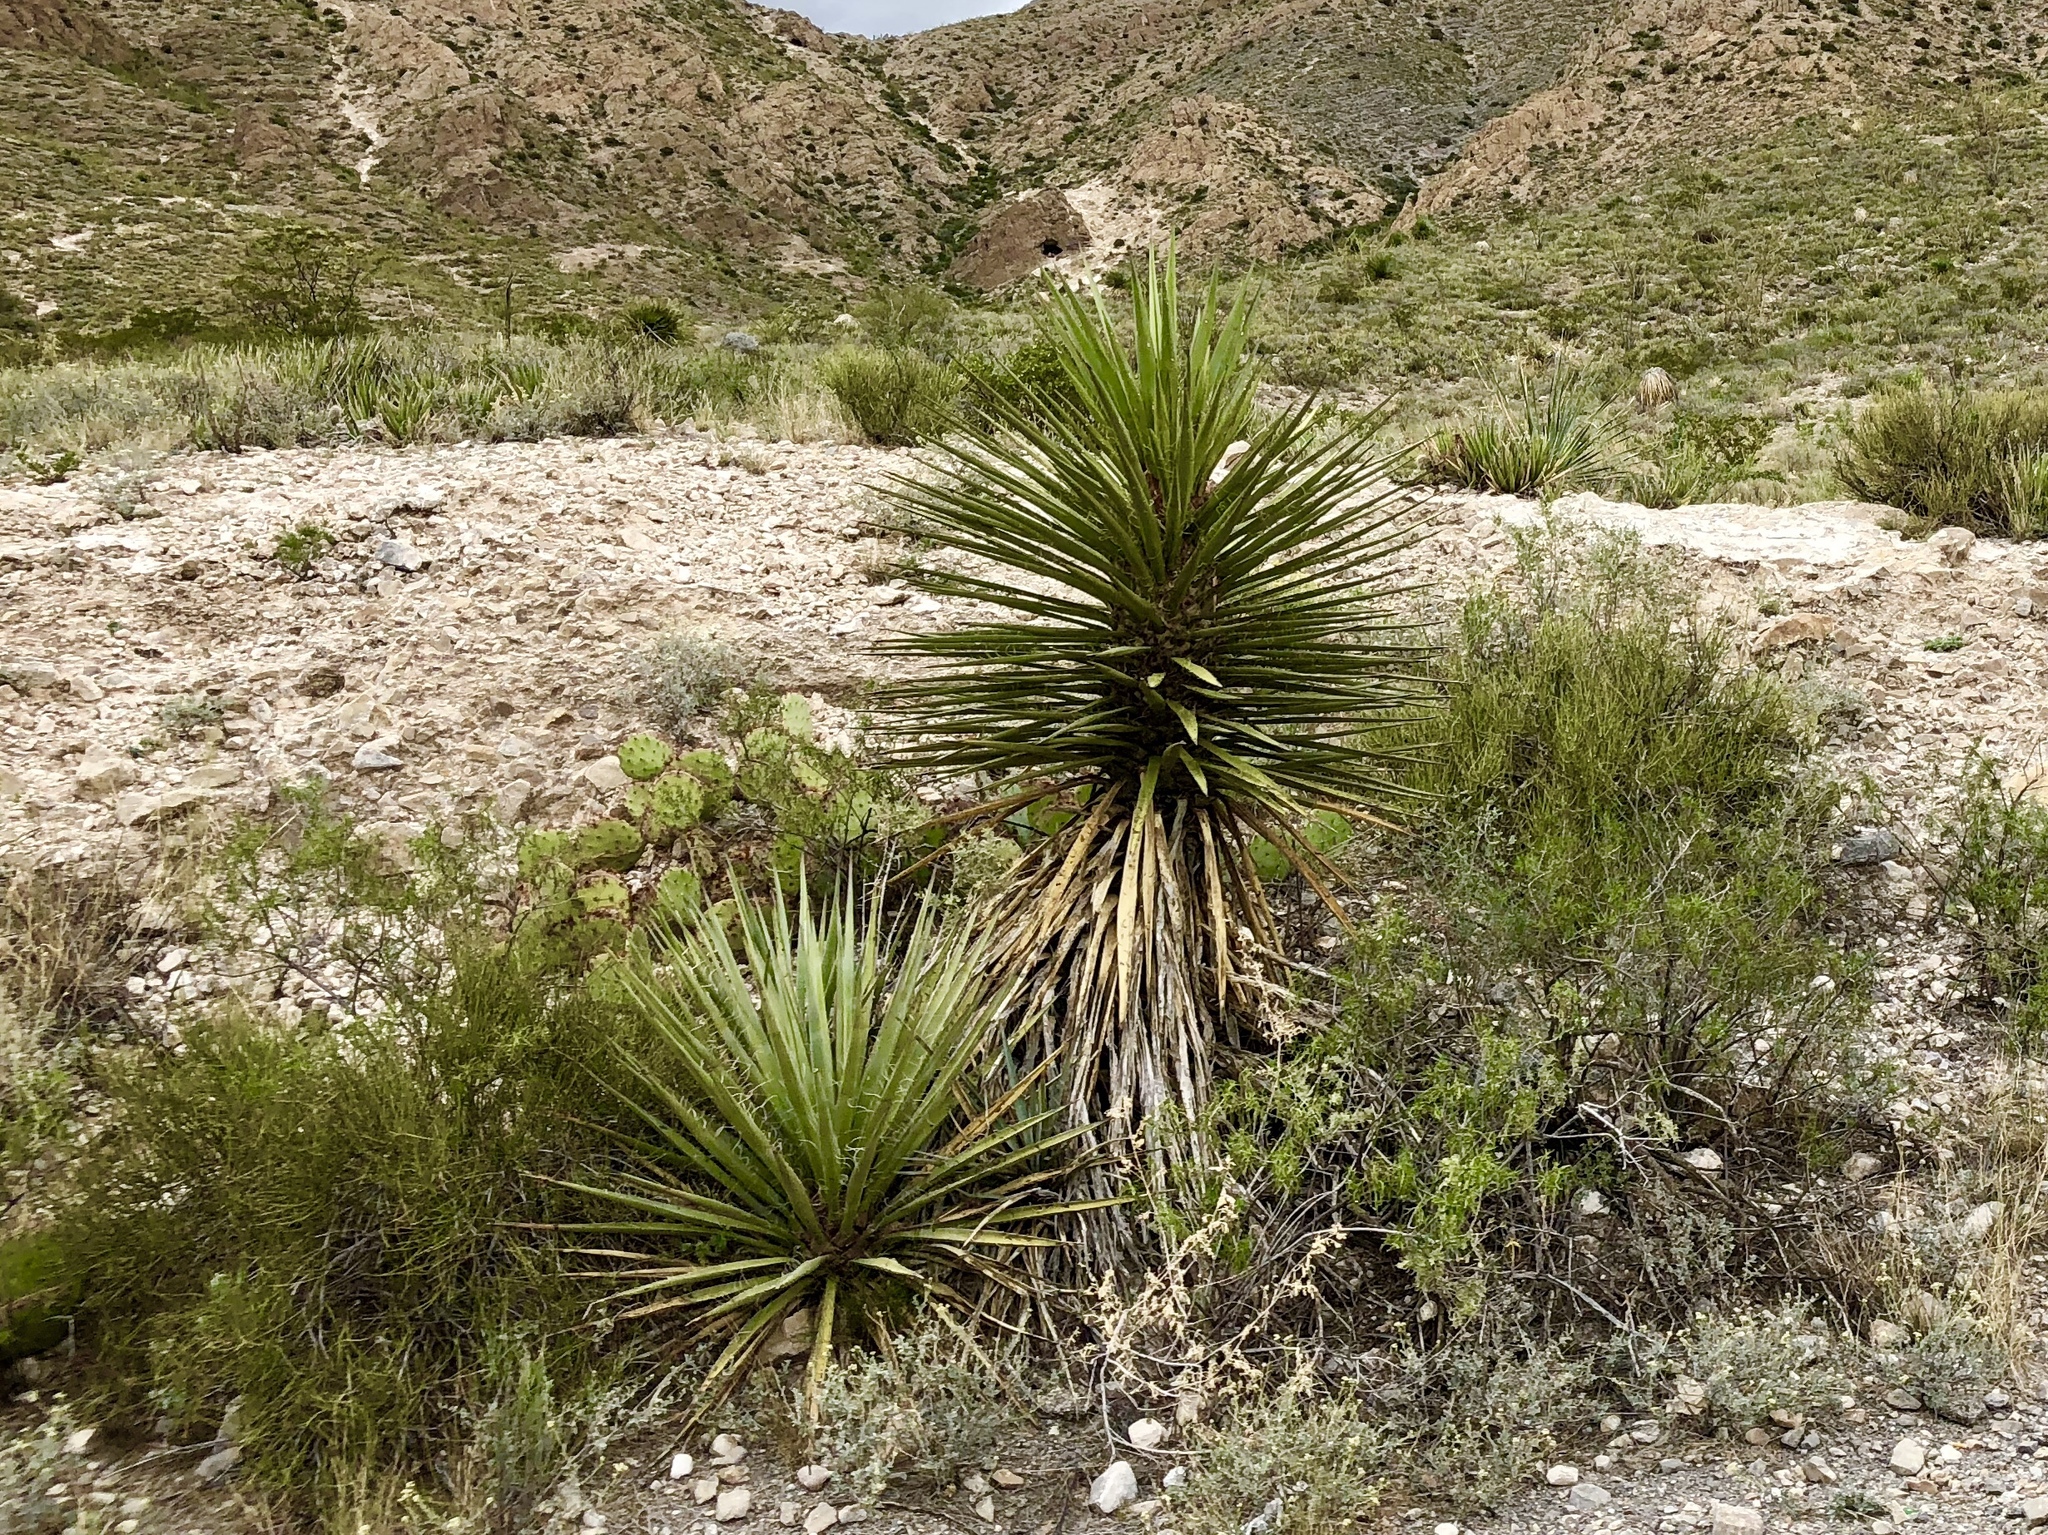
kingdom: Plantae
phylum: Tracheophyta
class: Liliopsida
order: Asparagales
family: Asparagaceae
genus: Yucca
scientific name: Yucca treculiana
